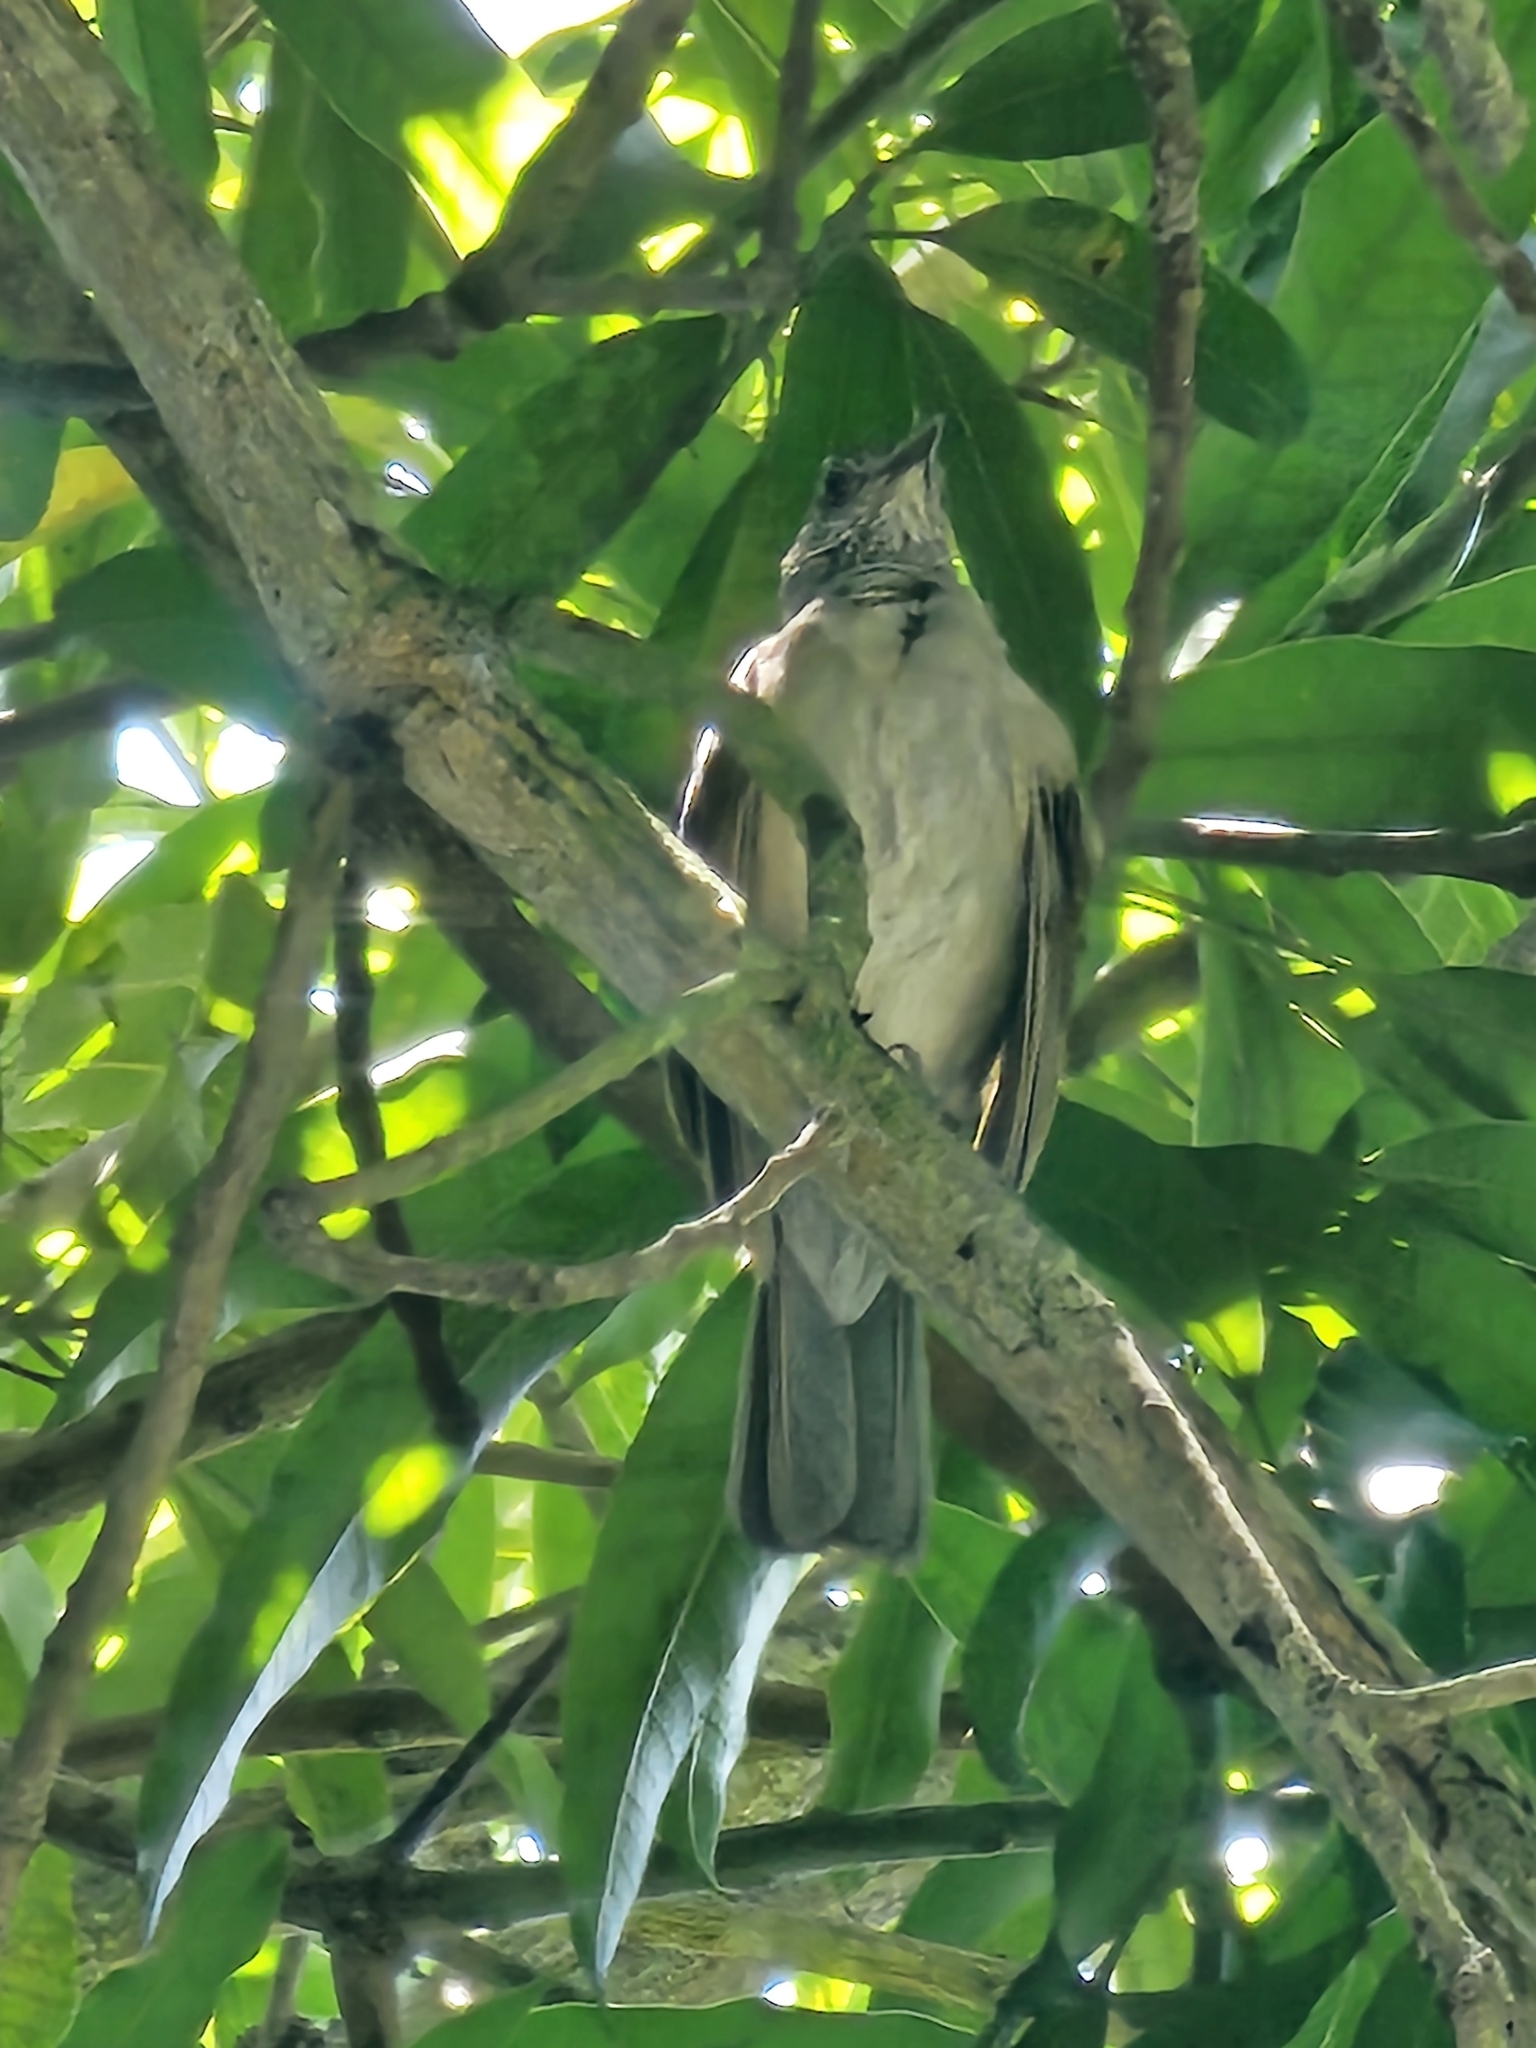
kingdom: Animalia
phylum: Chordata
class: Aves
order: Passeriformes
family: Turdidae
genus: Turdus
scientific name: Turdus leucomelas
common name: Pale-breasted thrush
